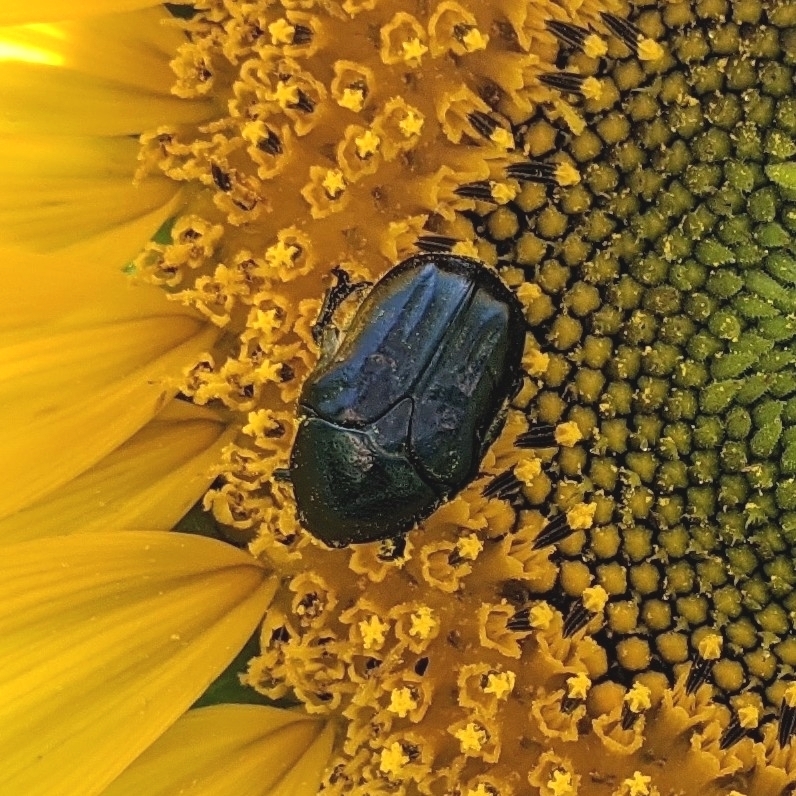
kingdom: Animalia
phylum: Arthropoda
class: Insecta
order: Coleoptera
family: Scarabaeidae
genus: Euphoria
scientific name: Euphoria sepulcralis
